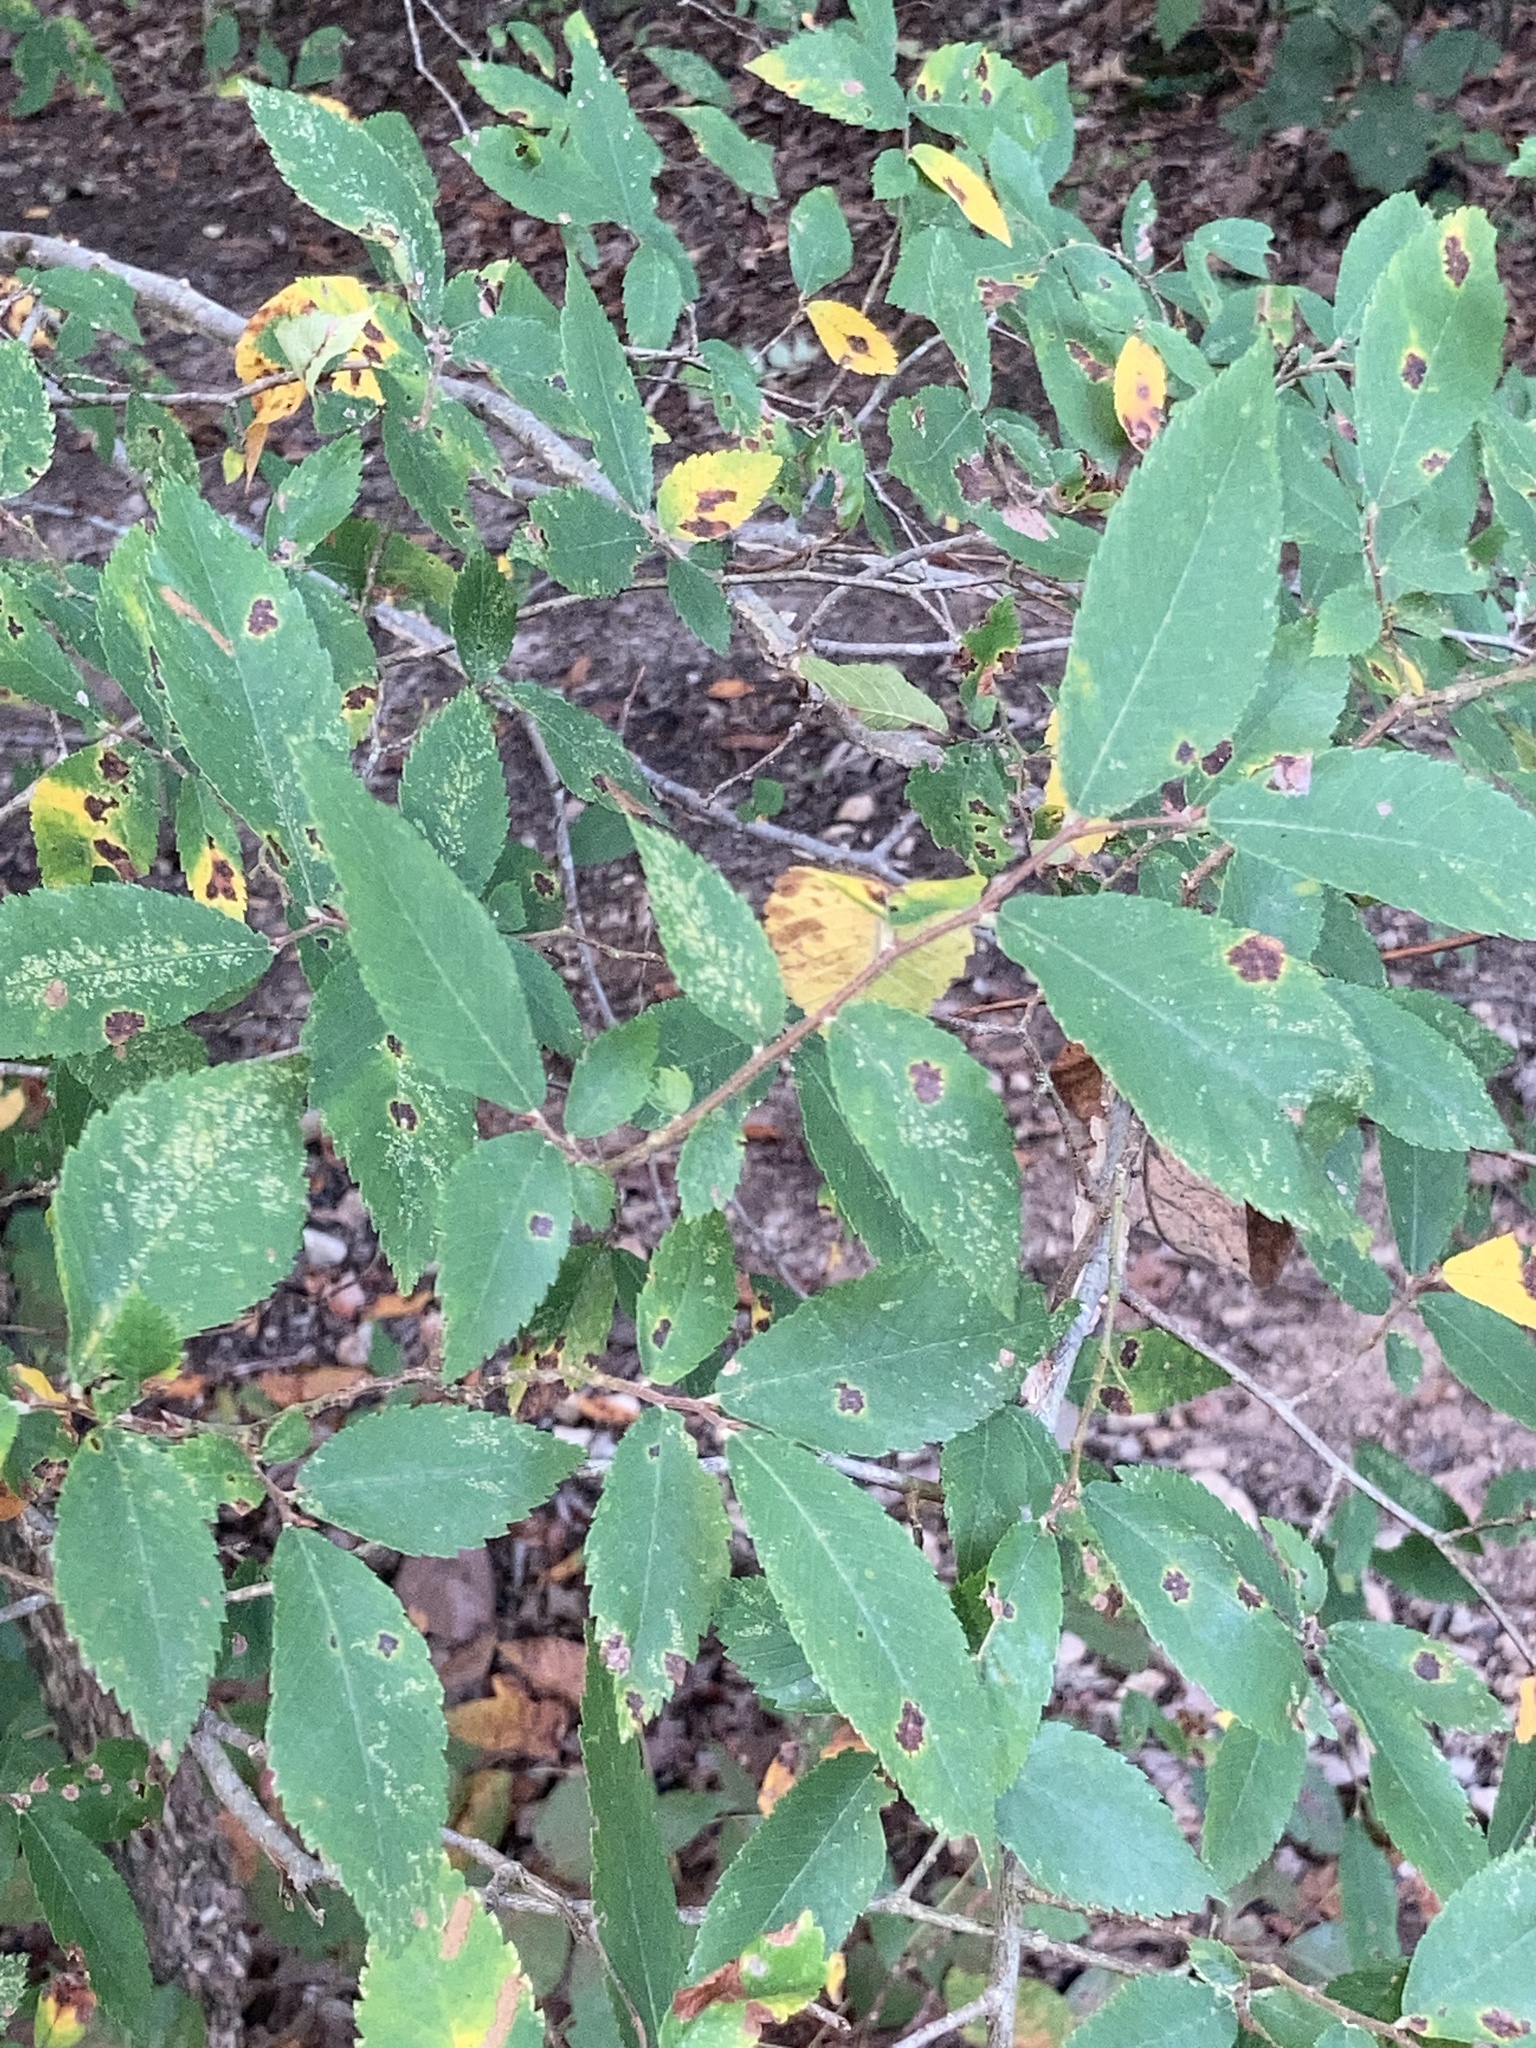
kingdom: Plantae
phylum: Tracheophyta
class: Magnoliopsida
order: Rosales
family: Ulmaceae
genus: Ulmus
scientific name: Ulmus alata
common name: Winged elm
